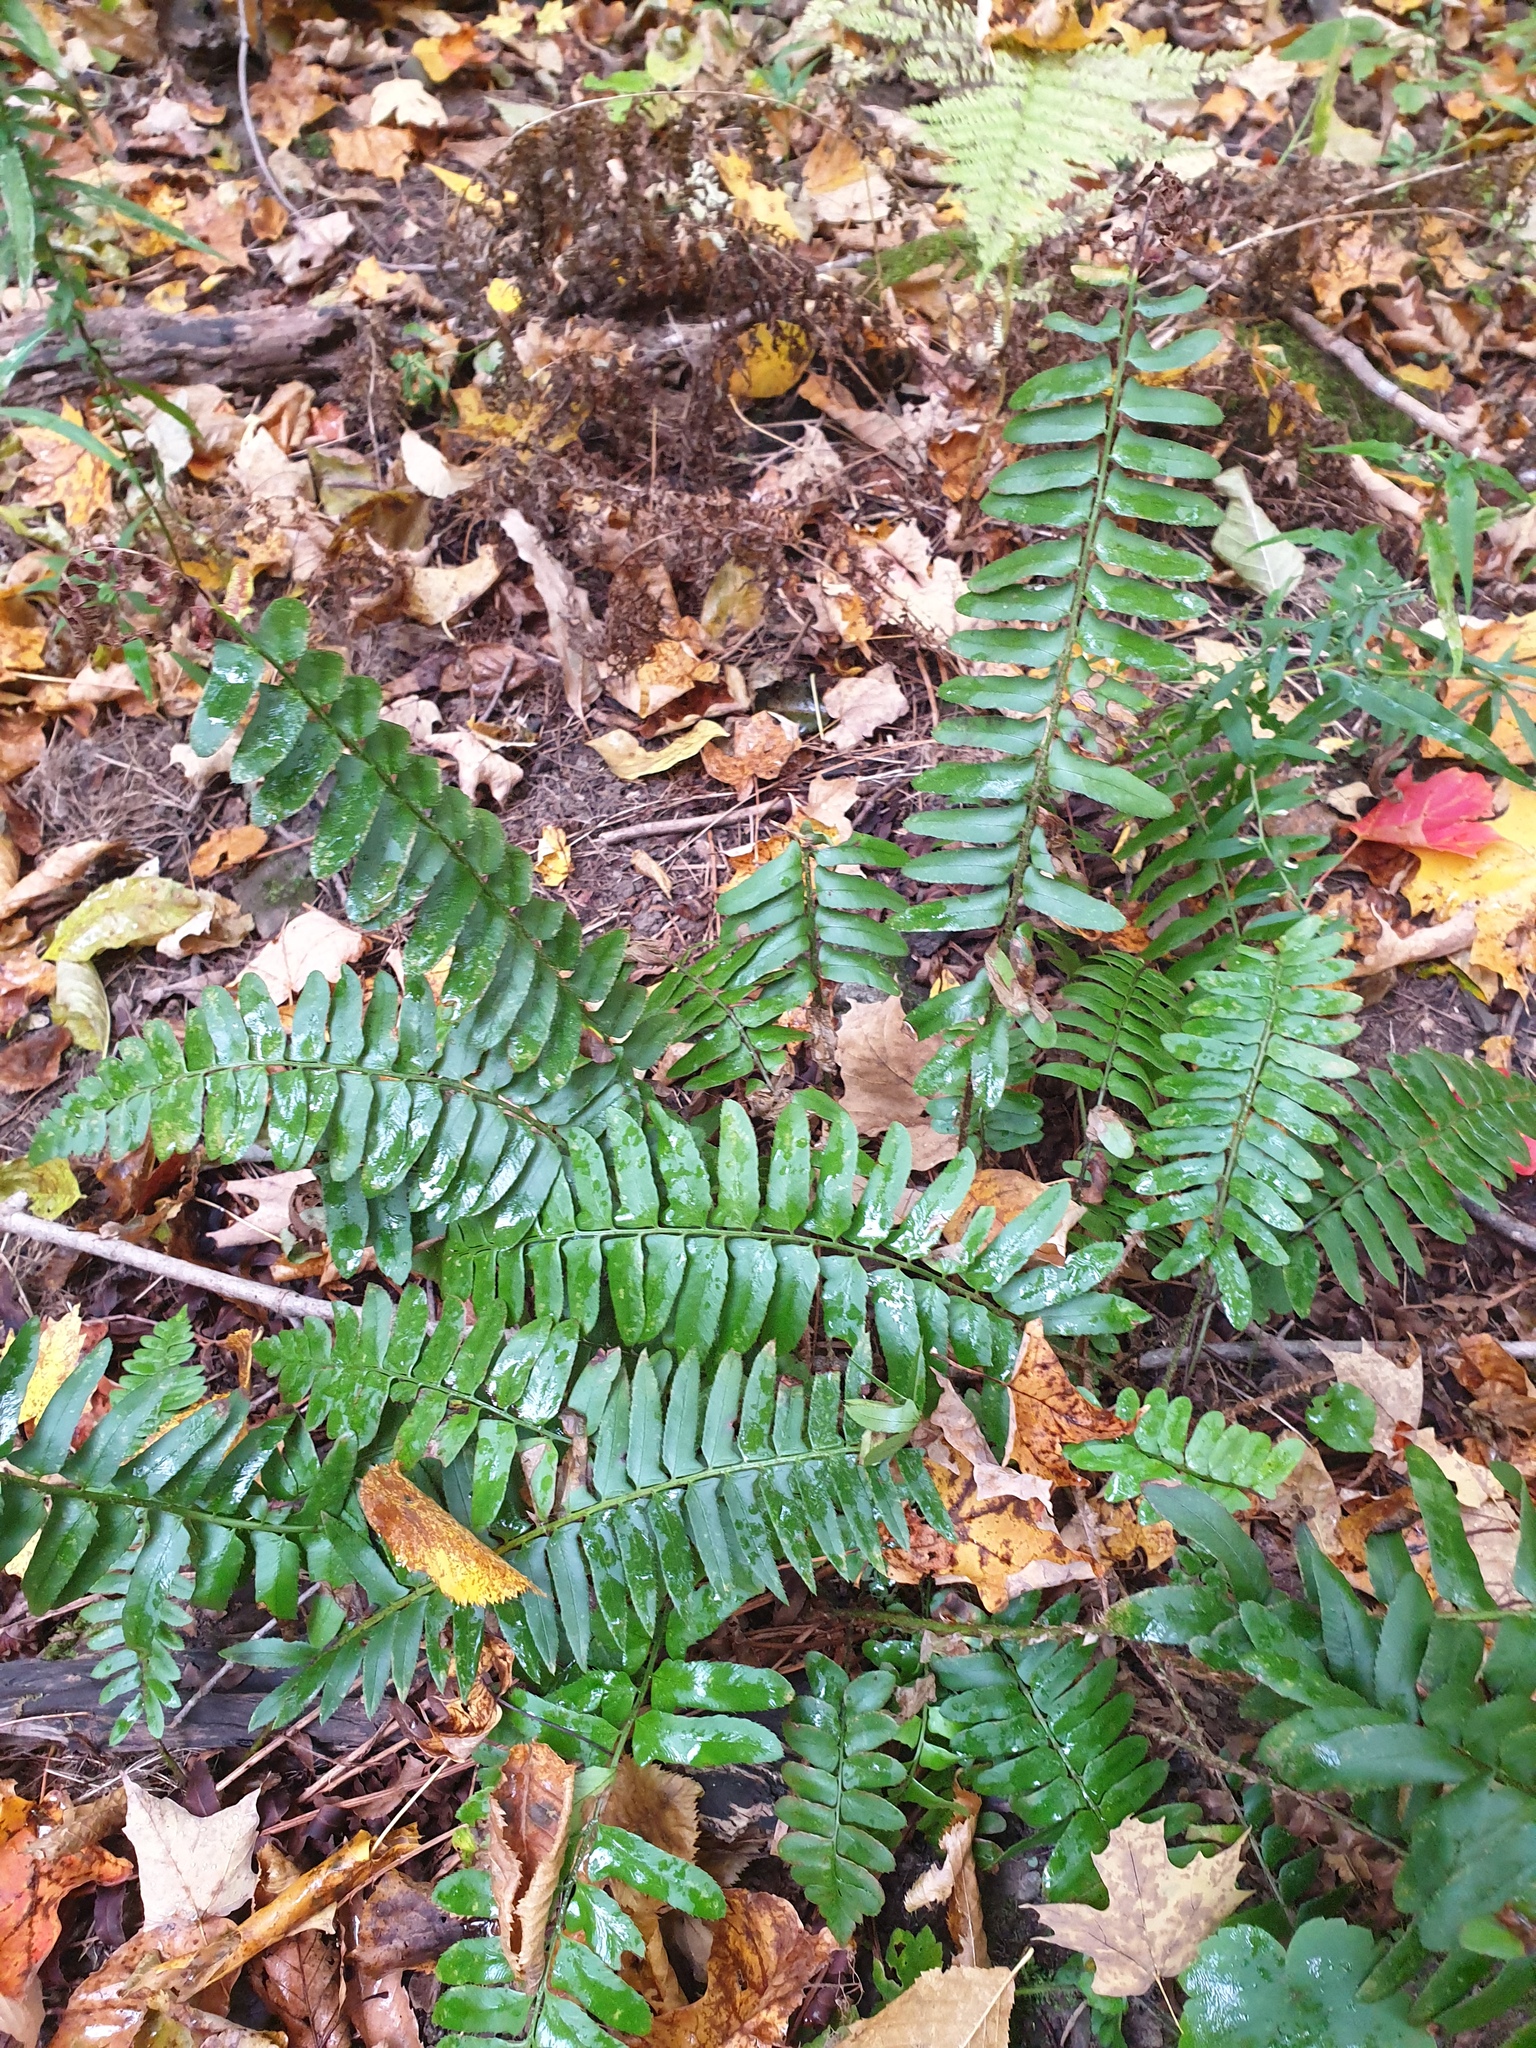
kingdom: Plantae
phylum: Tracheophyta
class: Polypodiopsida
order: Polypodiales
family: Dryopteridaceae
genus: Polystichum
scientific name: Polystichum acrostichoides
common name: Christmas fern
